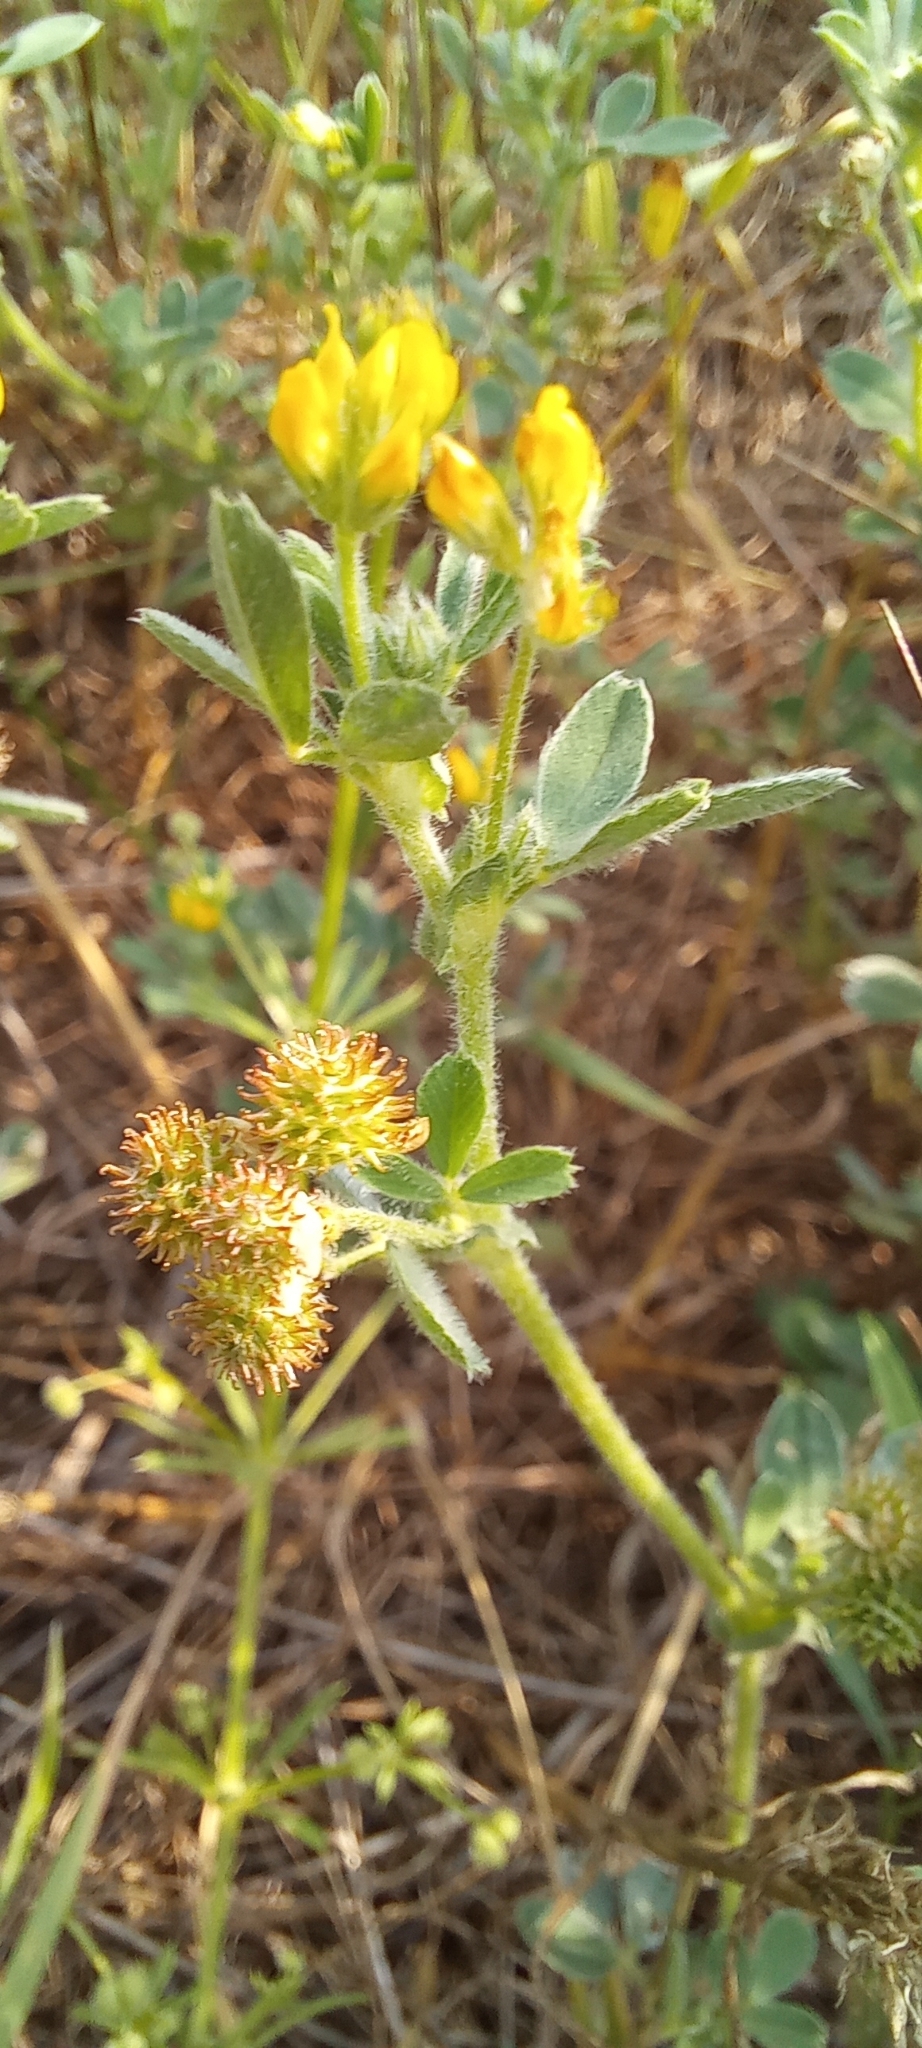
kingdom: Plantae
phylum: Tracheophyta
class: Magnoliopsida
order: Fabales
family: Fabaceae
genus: Medicago
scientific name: Medicago minima
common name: Little bur-clover
